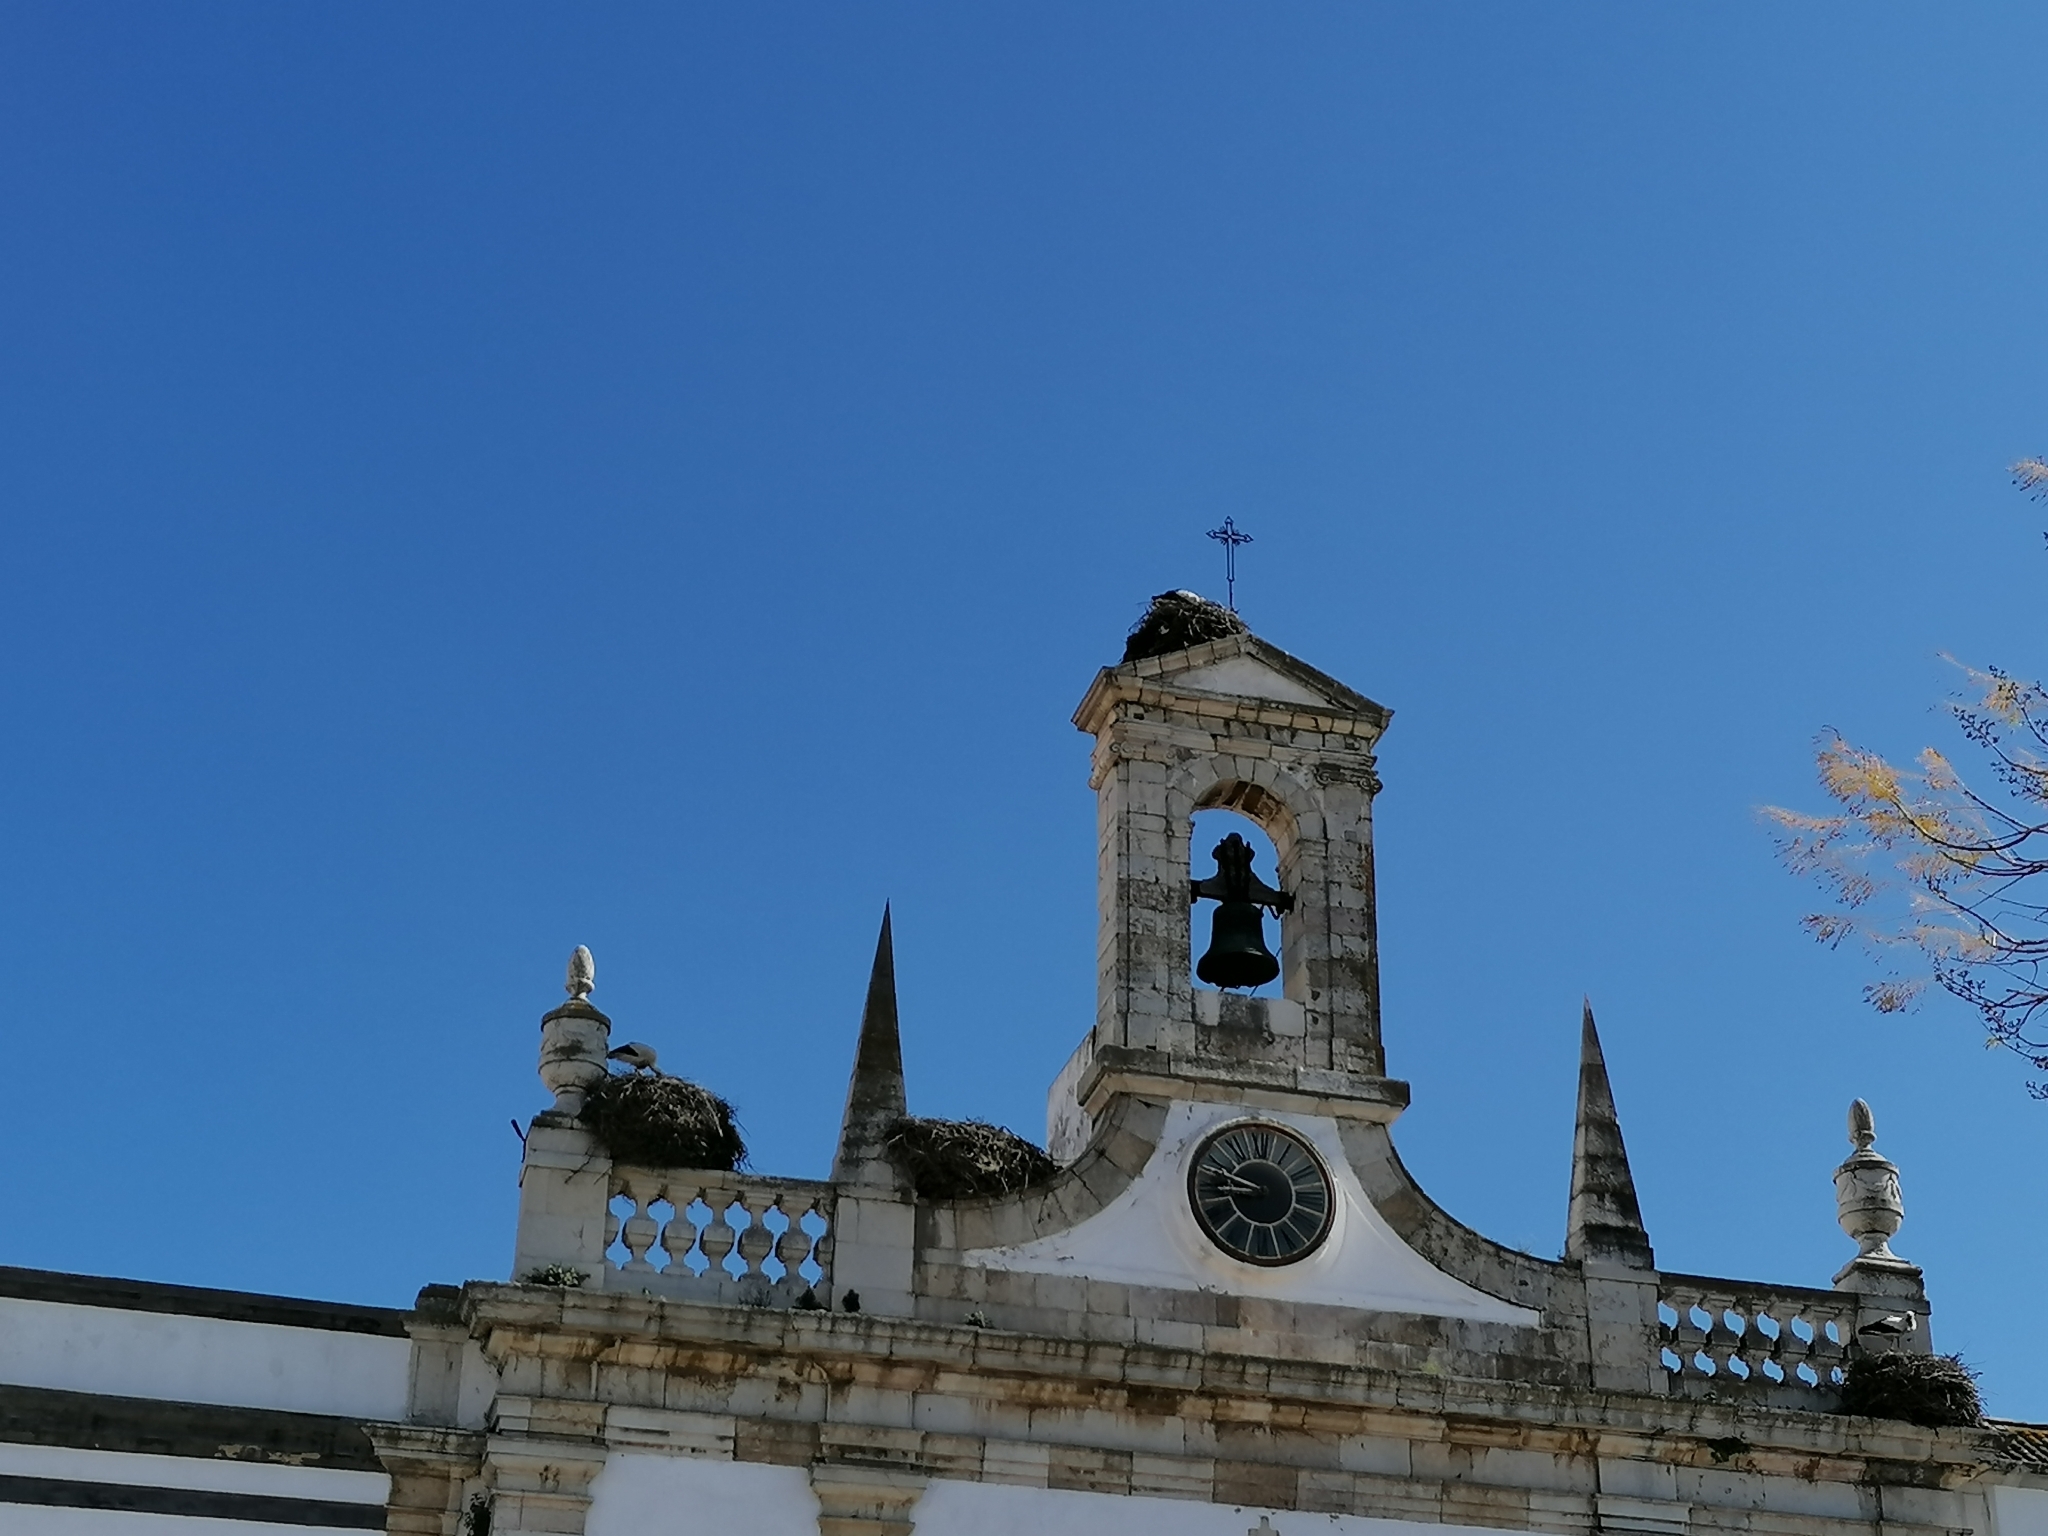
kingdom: Animalia
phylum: Chordata
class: Aves
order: Ciconiiformes
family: Ciconiidae
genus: Ciconia
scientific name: Ciconia ciconia
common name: White stork
